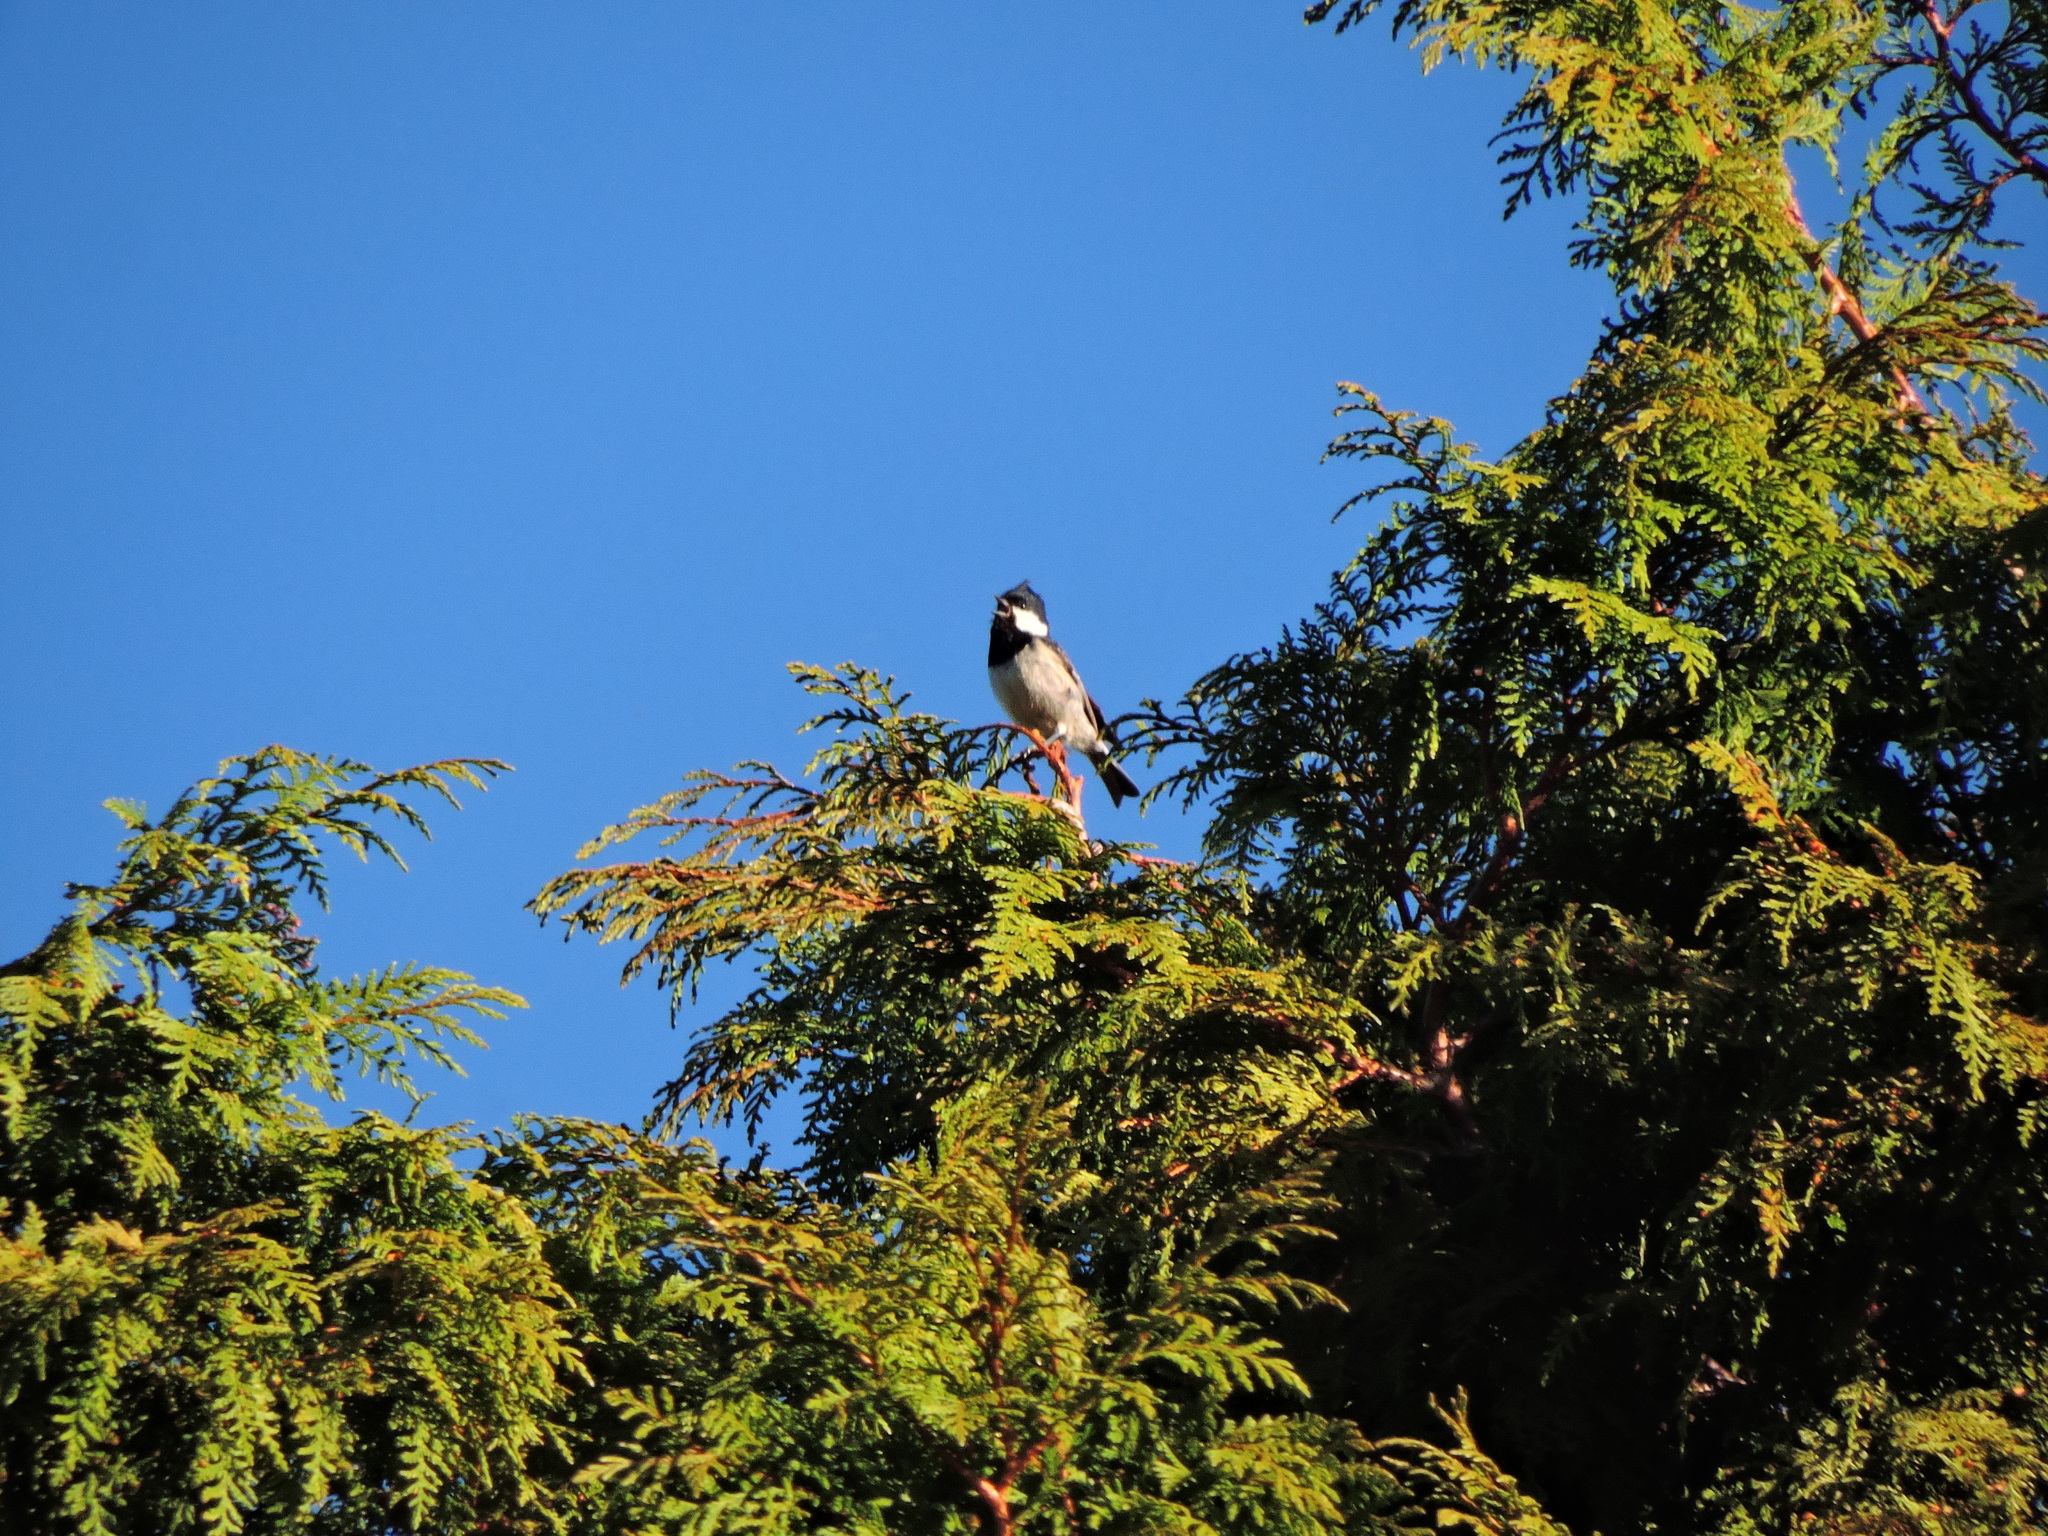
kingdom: Animalia
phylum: Chordata
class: Aves
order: Passeriformes
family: Paridae
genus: Periparus
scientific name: Periparus ater
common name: Coal tit
